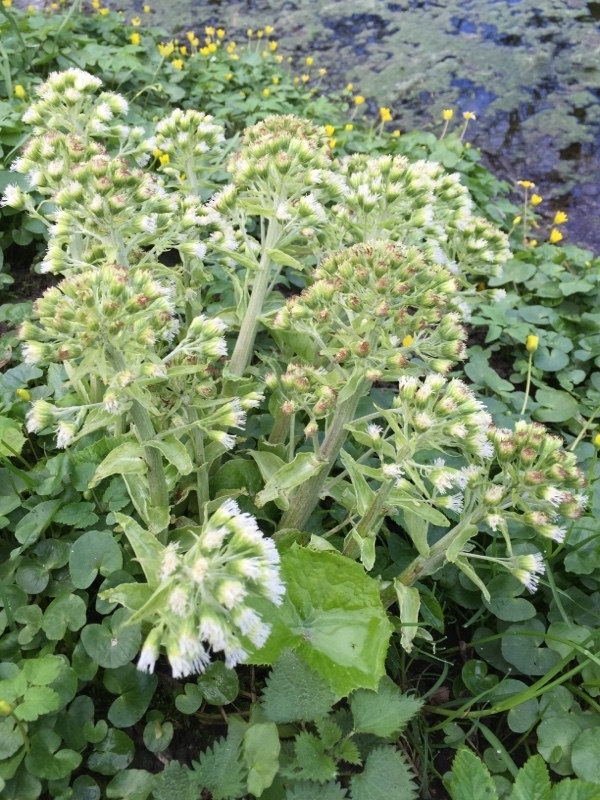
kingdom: Plantae
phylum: Tracheophyta
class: Magnoliopsida
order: Asterales
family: Asteraceae
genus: Petasites
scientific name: Petasites albus
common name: White butterbur
